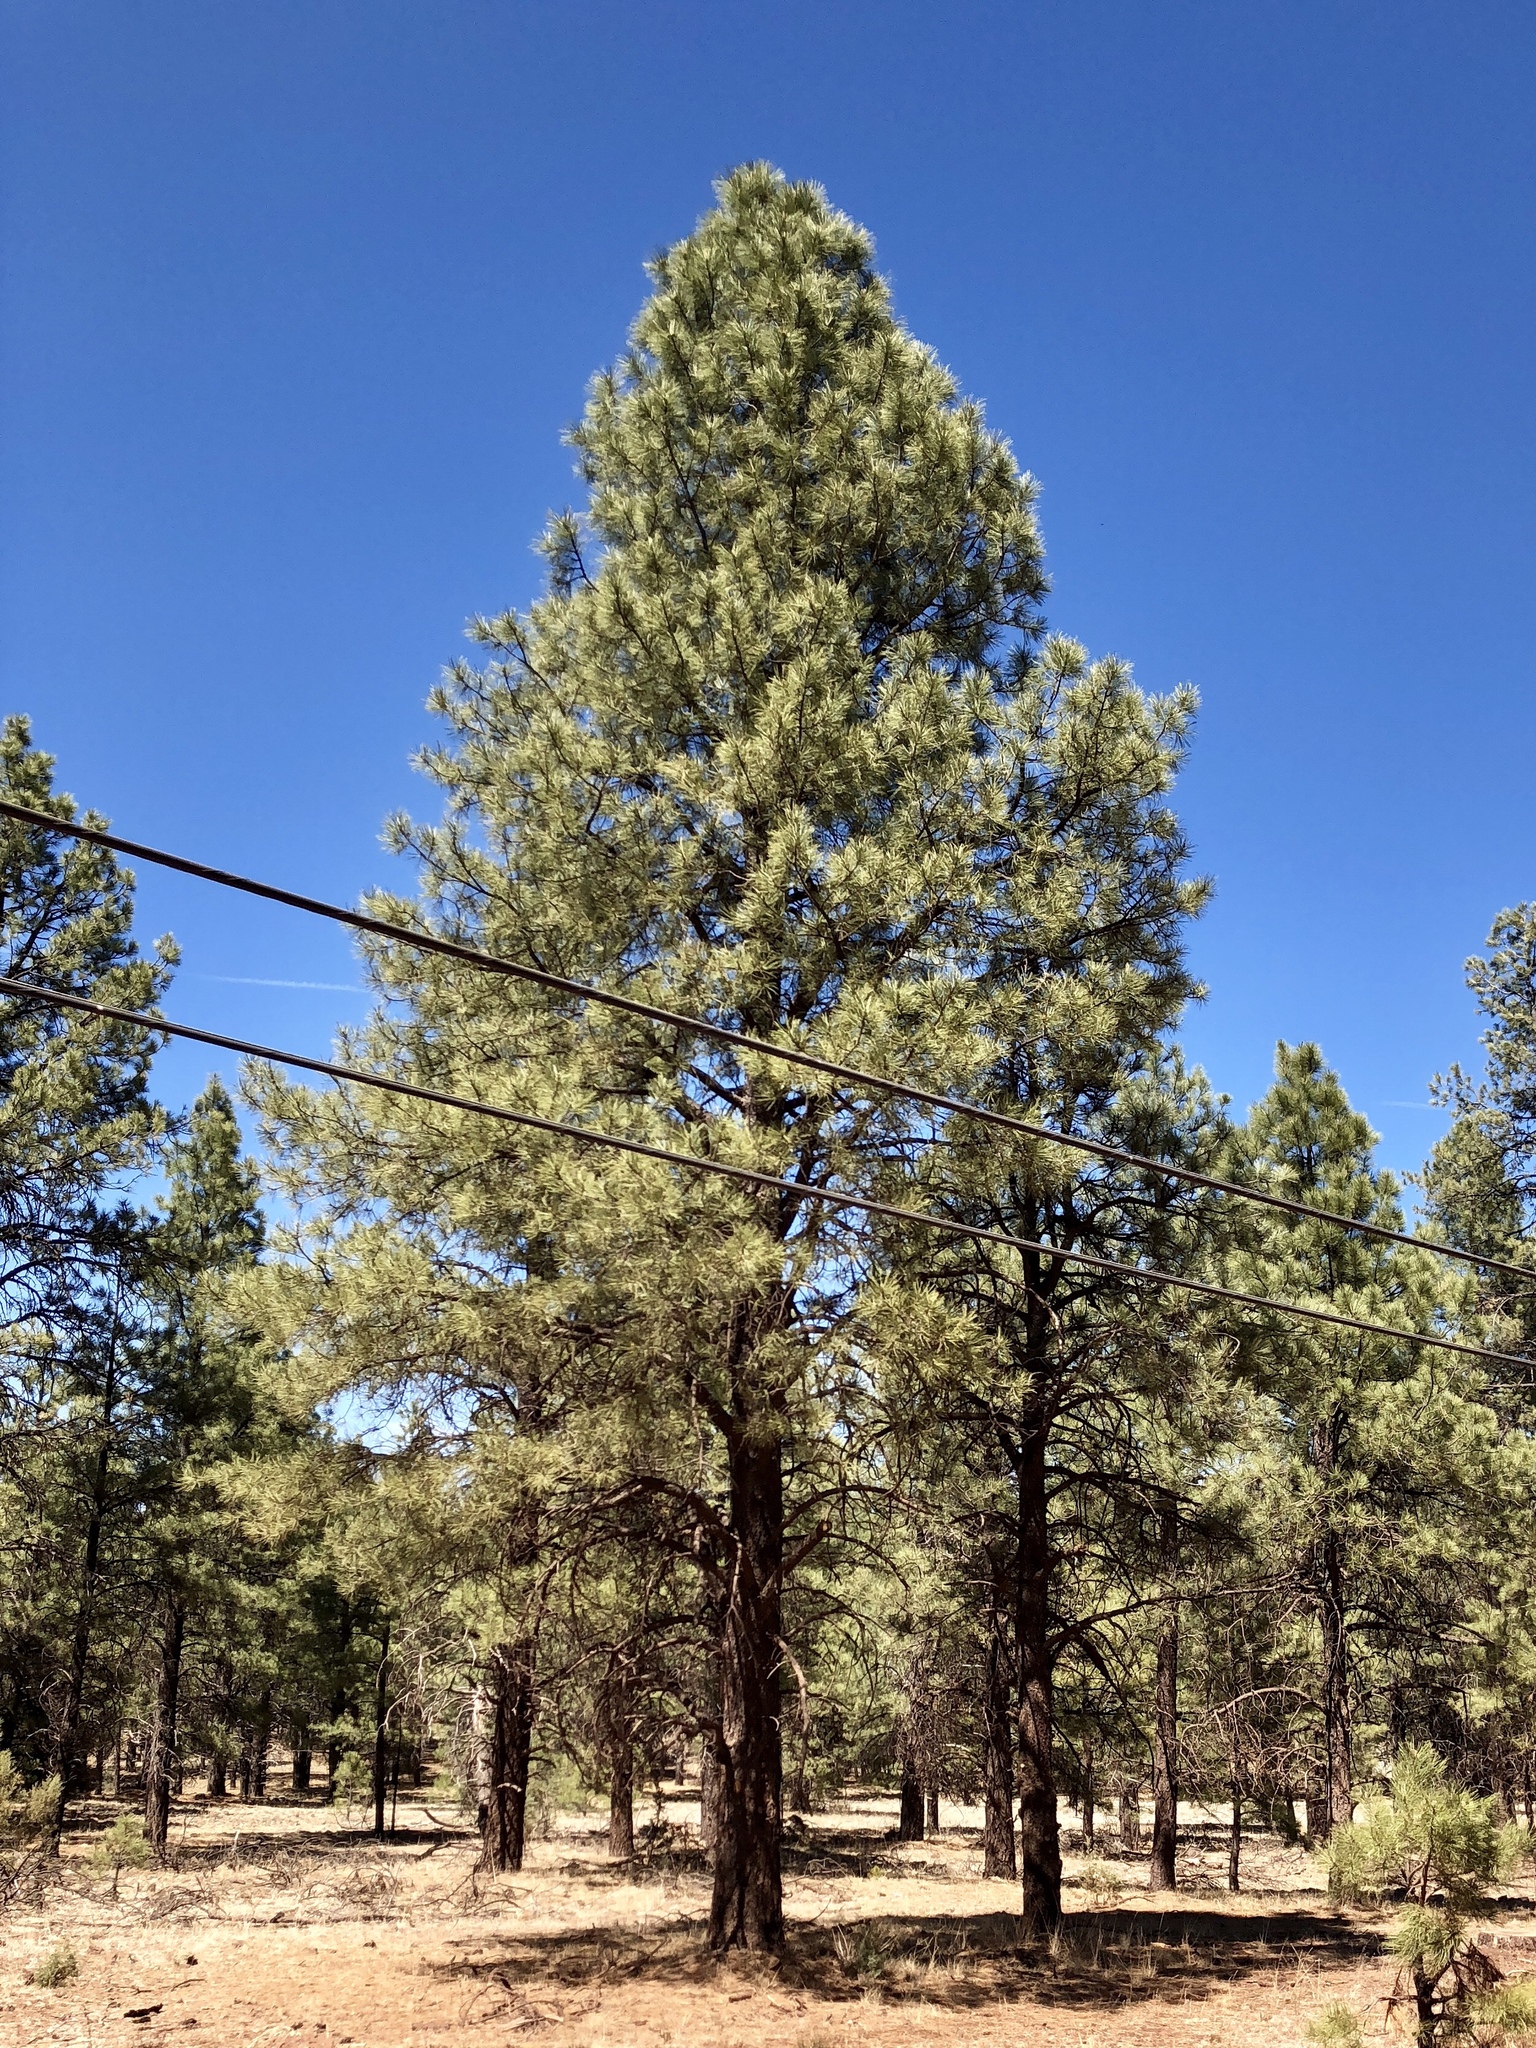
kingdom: Plantae
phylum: Tracheophyta
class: Pinopsida
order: Pinales
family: Pinaceae
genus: Pinus
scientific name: Pinus ponderosa
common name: Western yellow-pine
